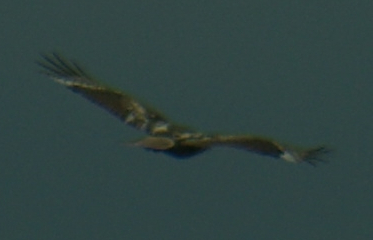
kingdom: Animalia
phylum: Chordata
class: Aves
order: Accipitriformes
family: Accipitridae
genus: Buteo
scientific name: Buteo jamaicensis
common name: Red-tailed hawk
